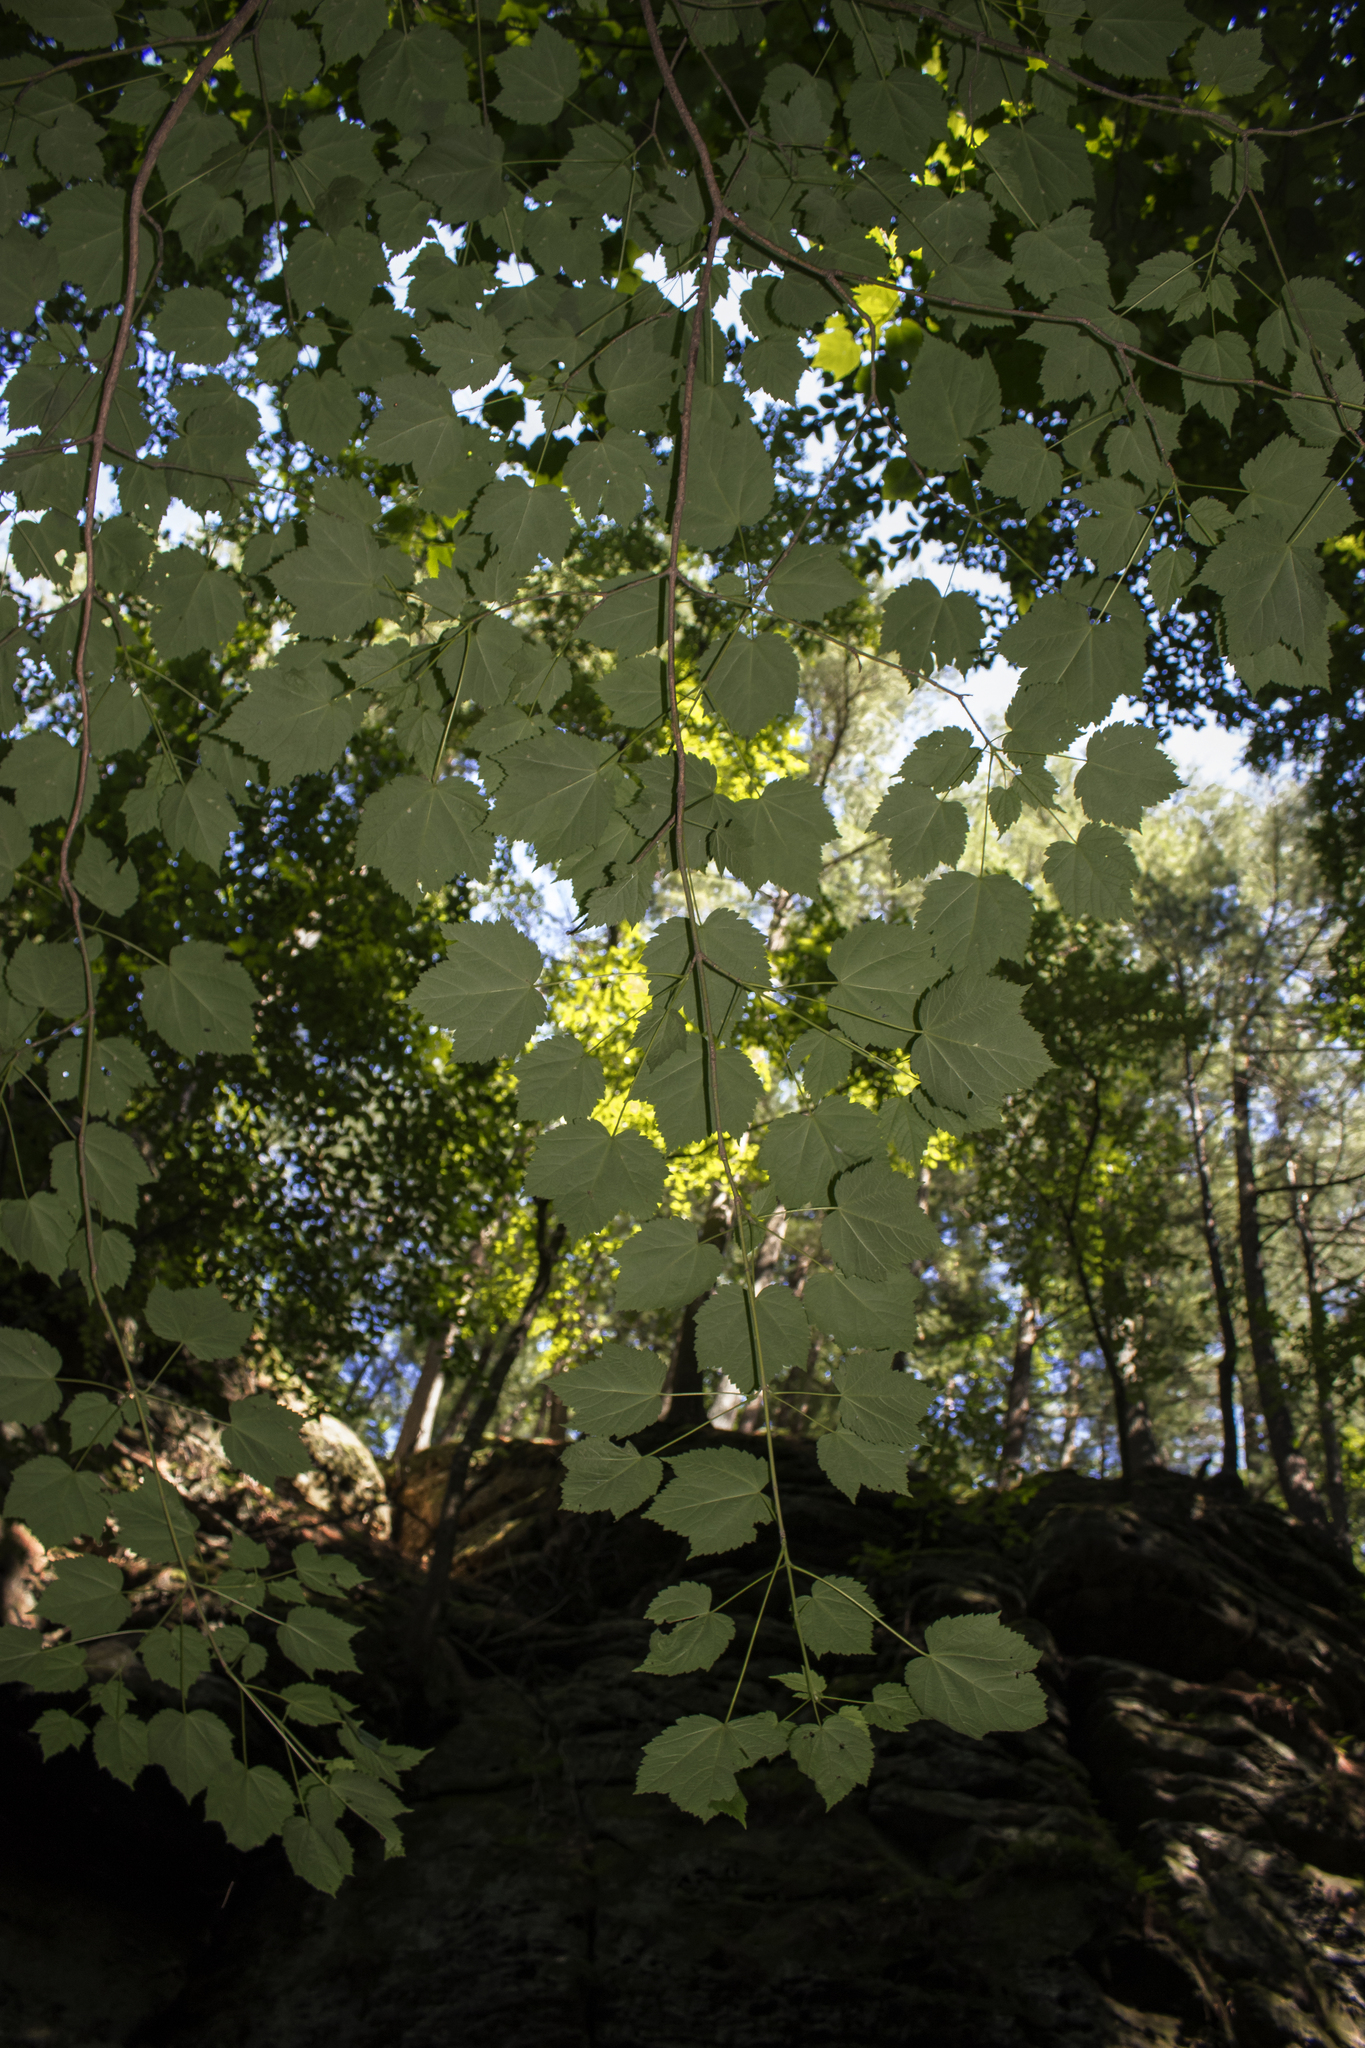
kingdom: Plantae
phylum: Tracheophyta
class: Magnoliopsida
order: Sapindales
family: Sapindaceae
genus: Acer
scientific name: Acer spicatum
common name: Mountain maple
